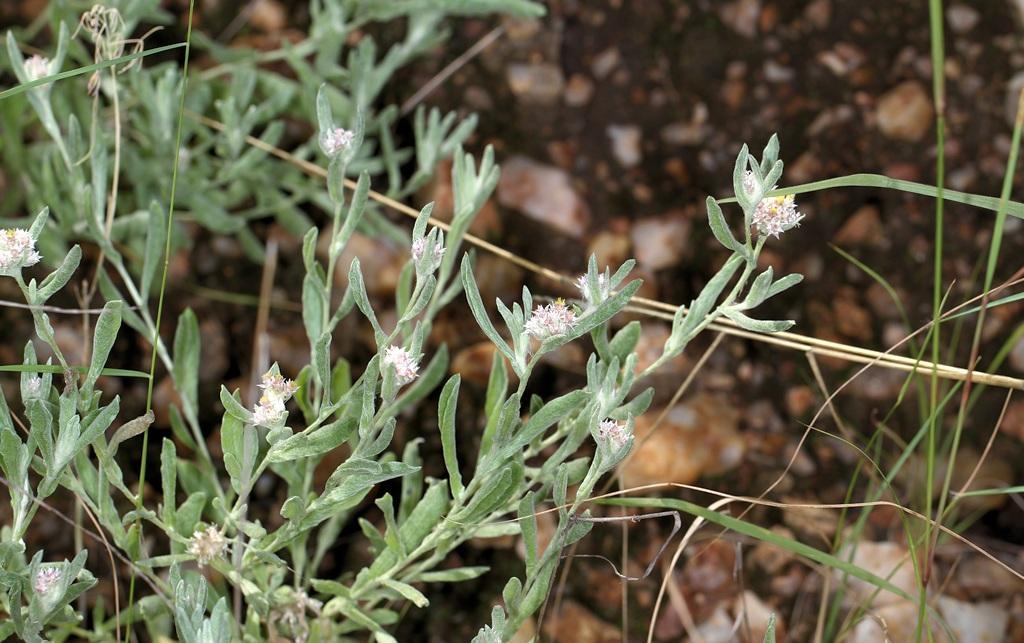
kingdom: Plantae
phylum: Tracheophyta
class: Magnoliopsida
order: Asterales
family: Asteraceae
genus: Helichrysum
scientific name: Helichrysum candolleanum
